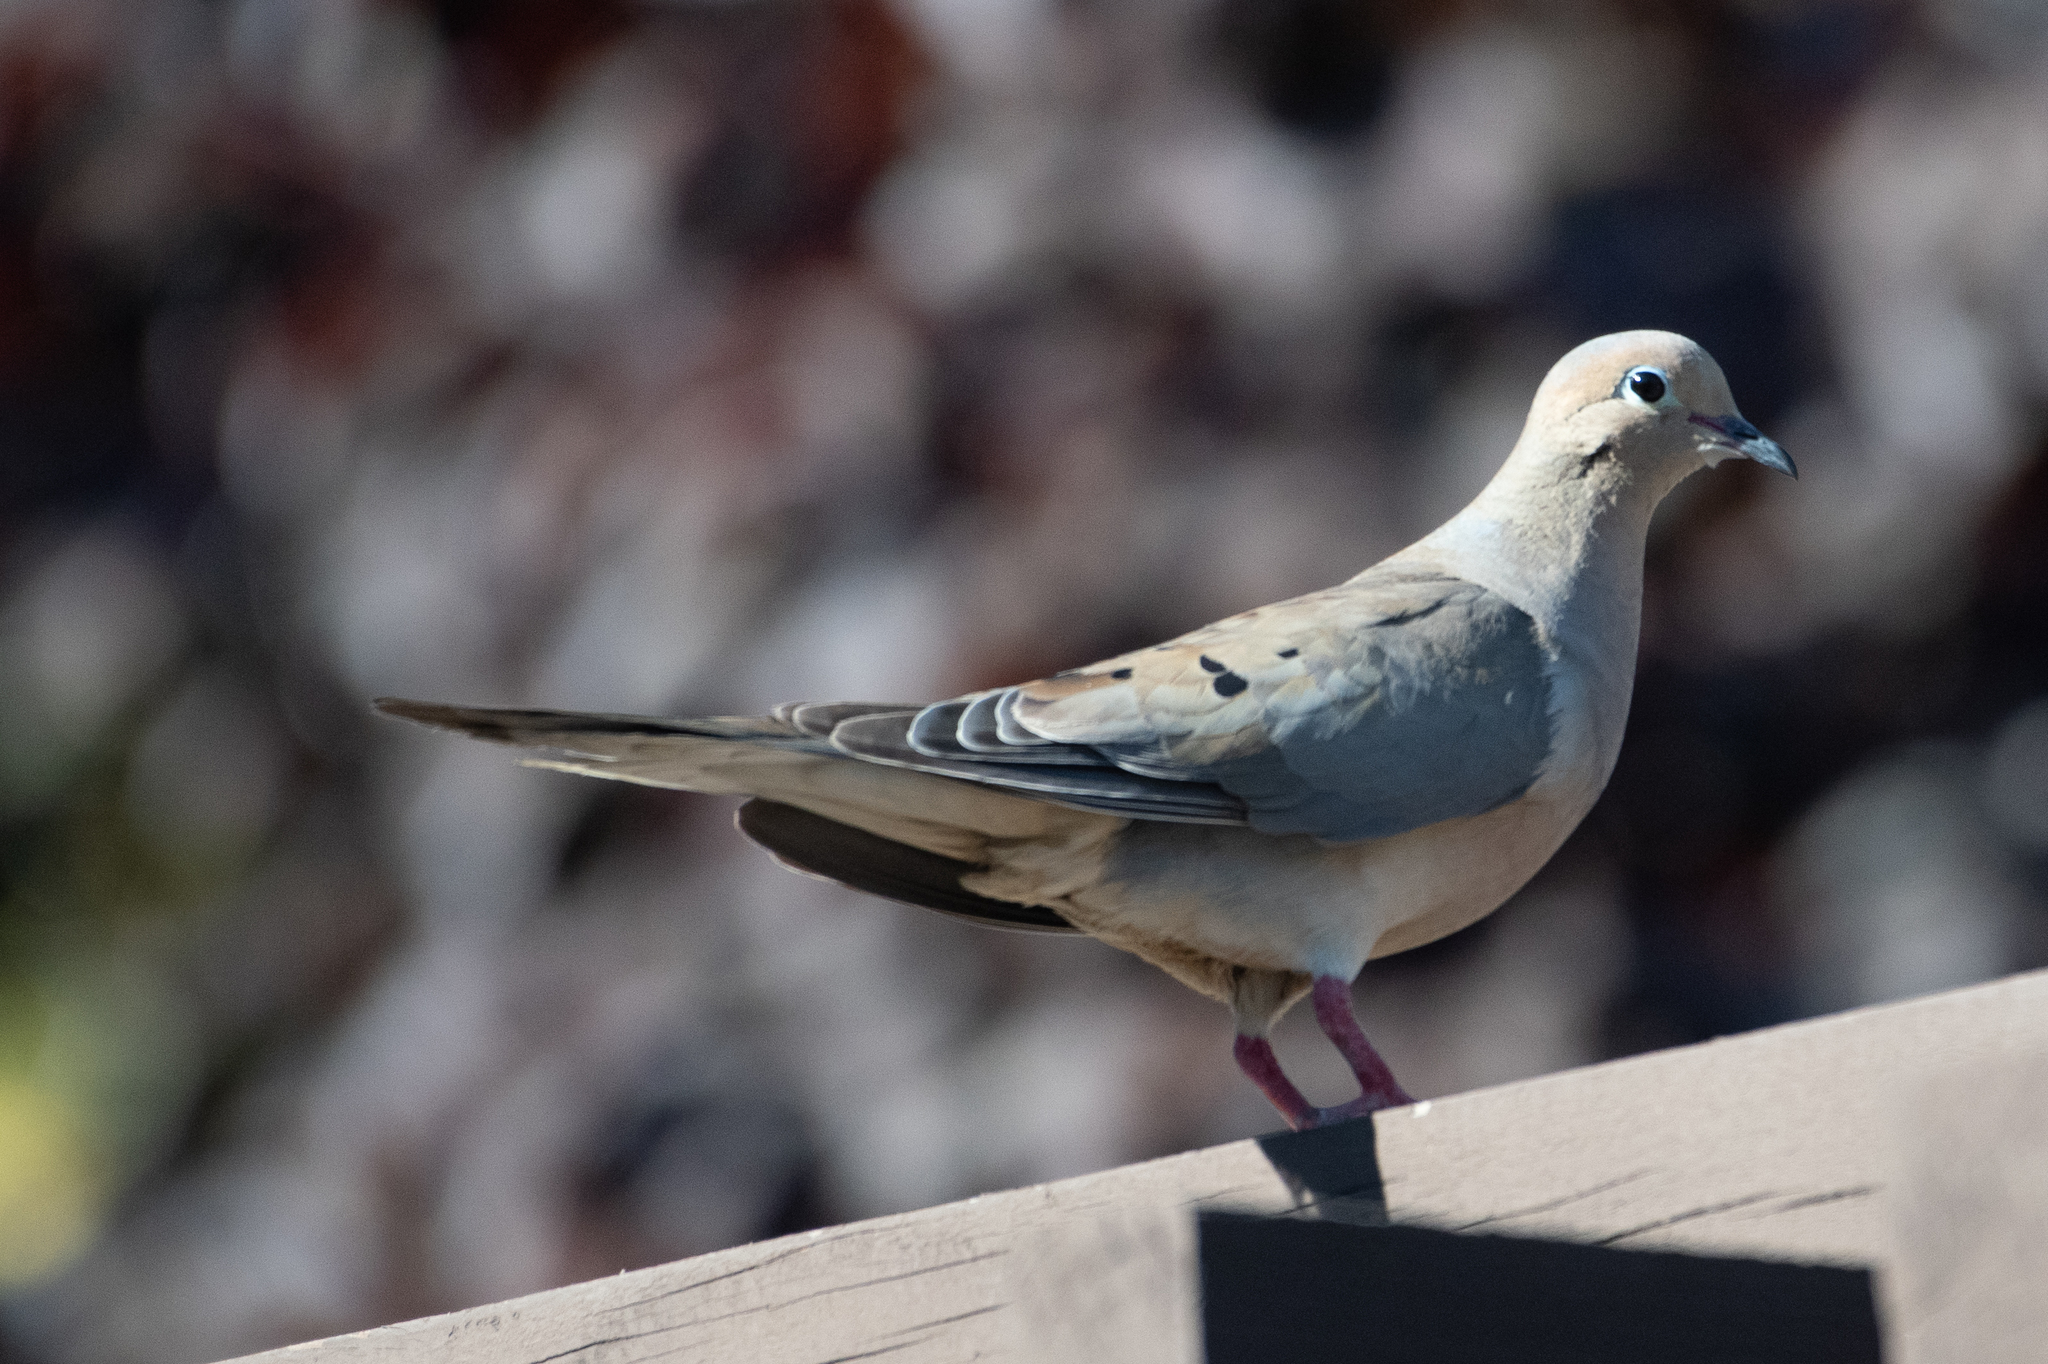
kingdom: Animalia
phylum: Chordata
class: Aves
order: Columbiformes
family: Columbidae
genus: Zenaida
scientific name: Zenaida macroura
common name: Mourning dove
